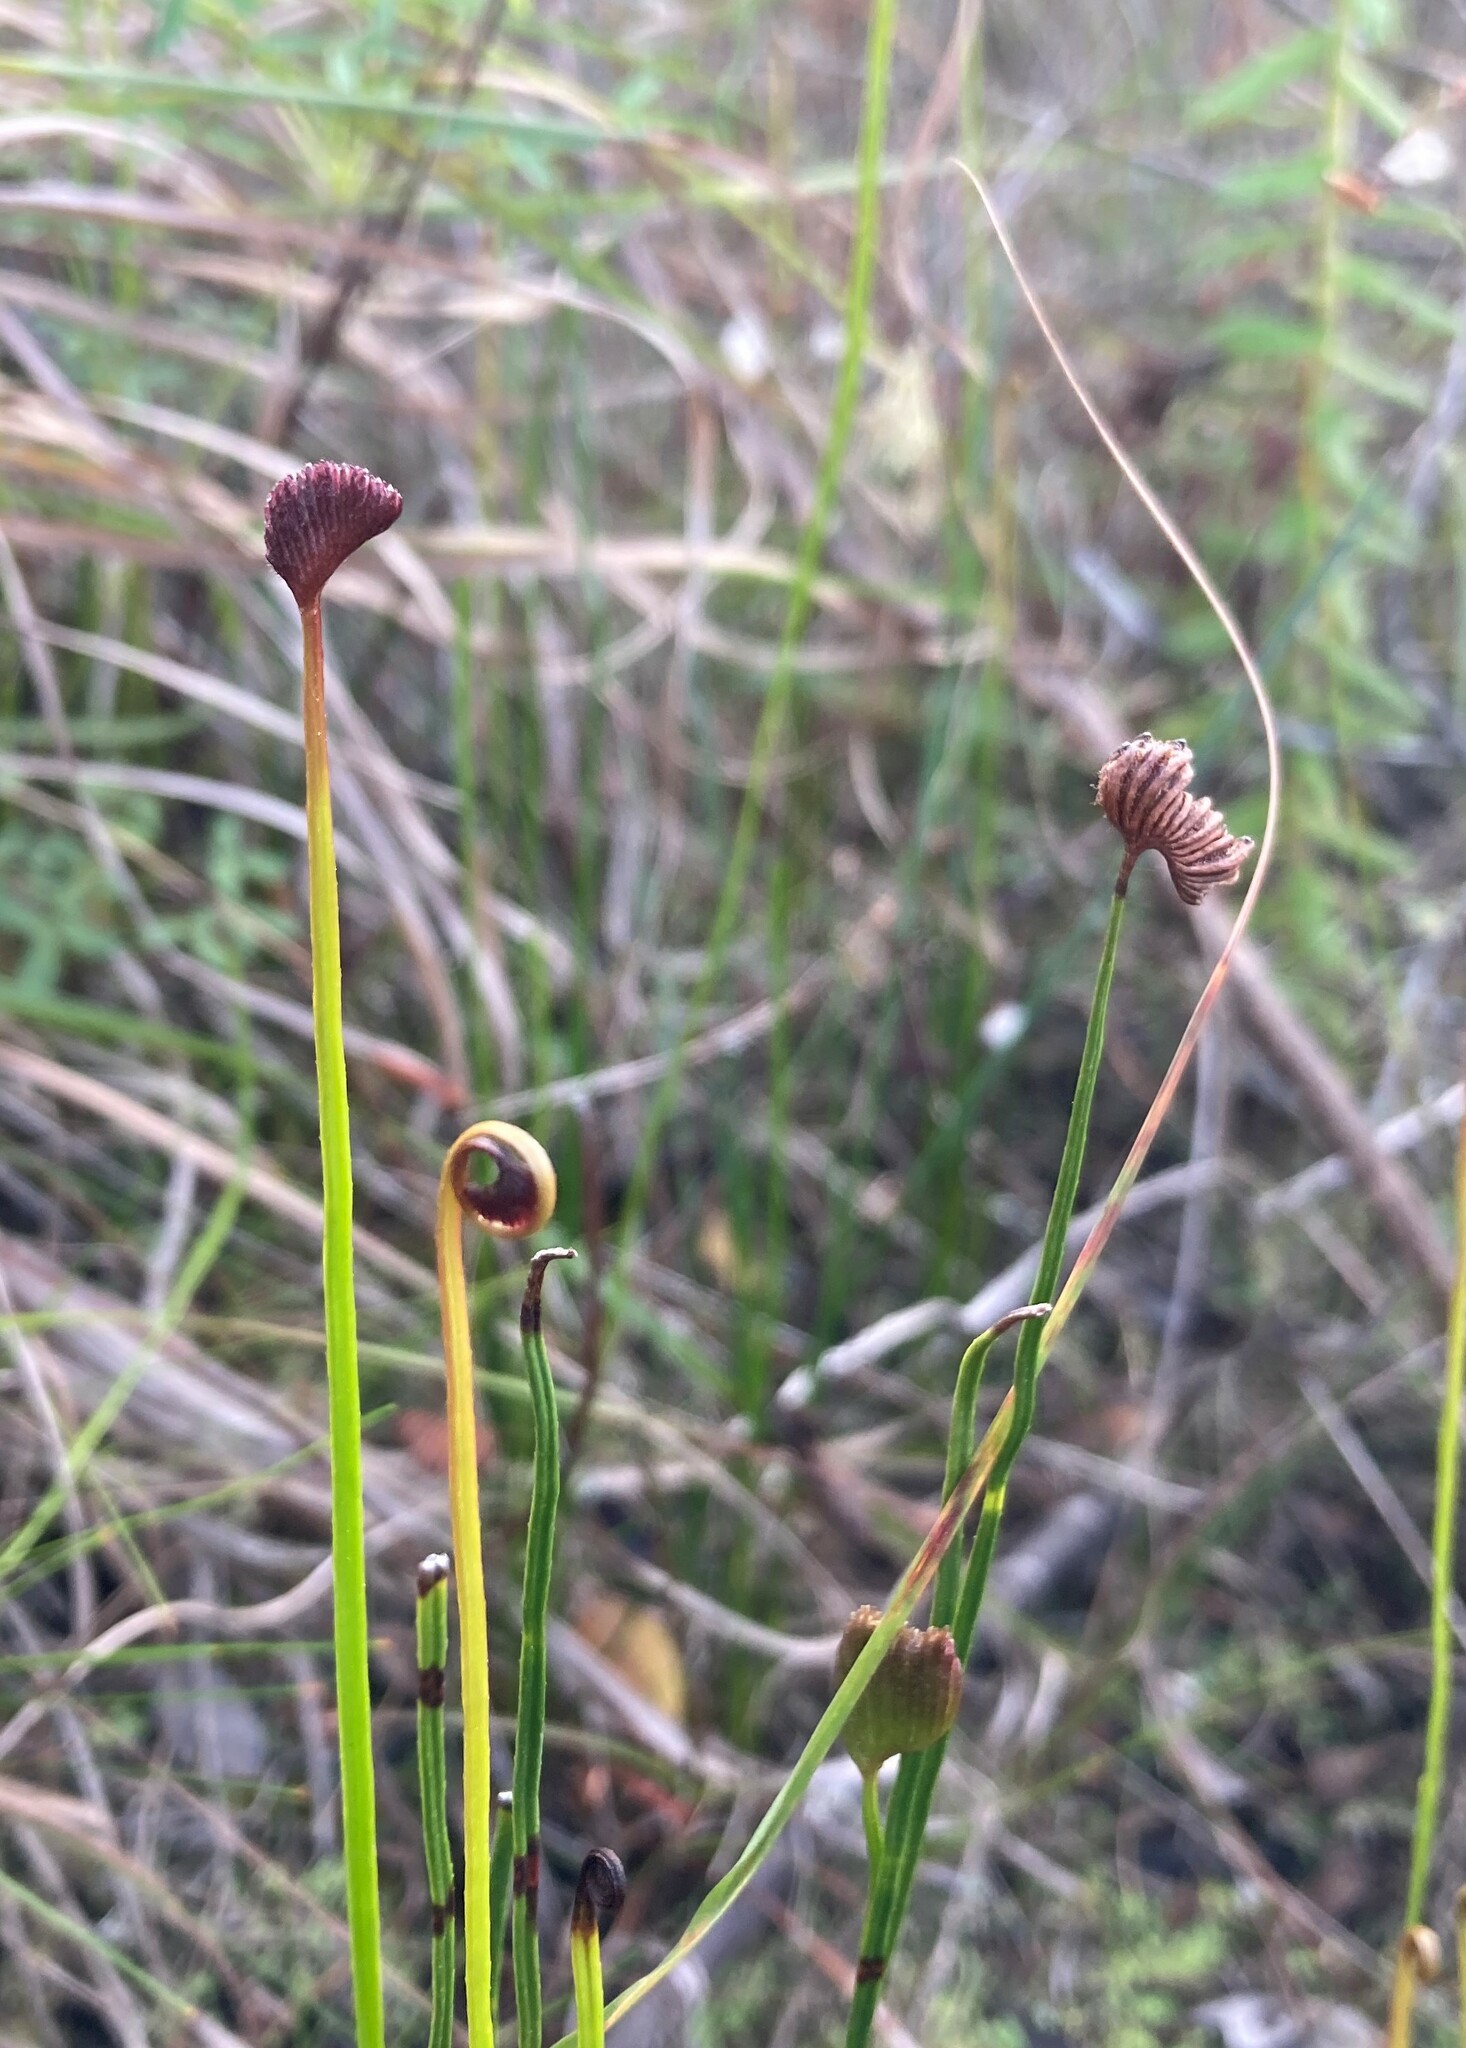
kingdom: Plantae
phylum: Tracheophyta
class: Polypodiopsida
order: Schizaeales
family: Schizaeaceae
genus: Schizaea
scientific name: Schizaea pectinata
